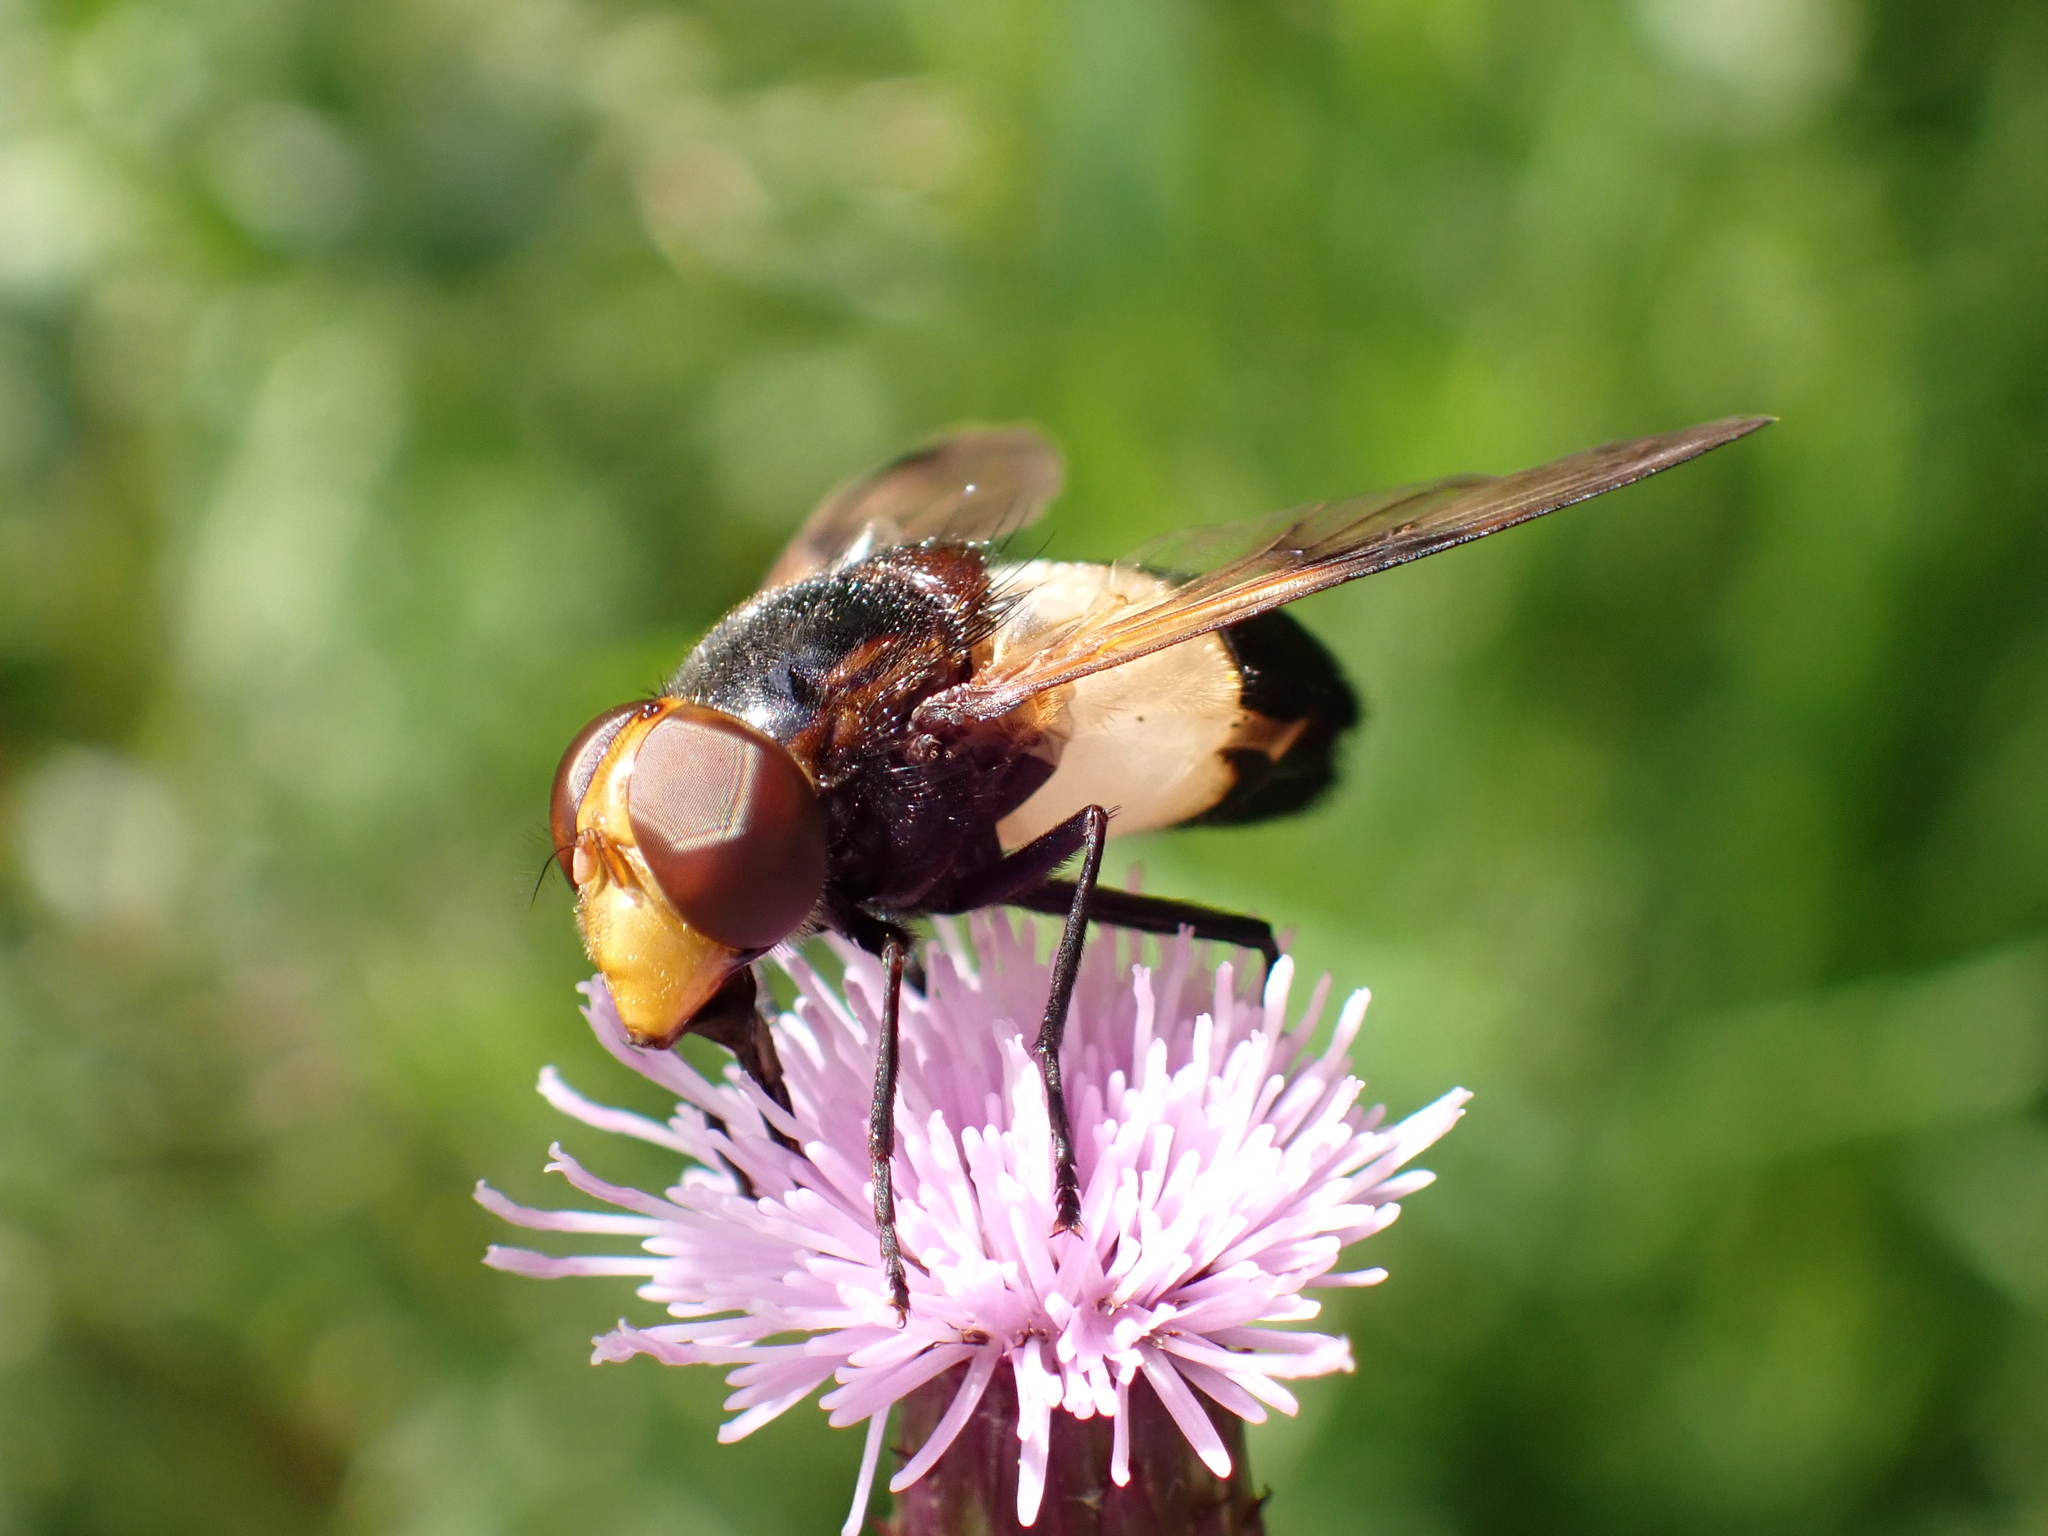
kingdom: Animalia
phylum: Arthropoda
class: Insecta
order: Diptera
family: Syrphidae
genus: Volucella
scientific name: Volucella pellucens
